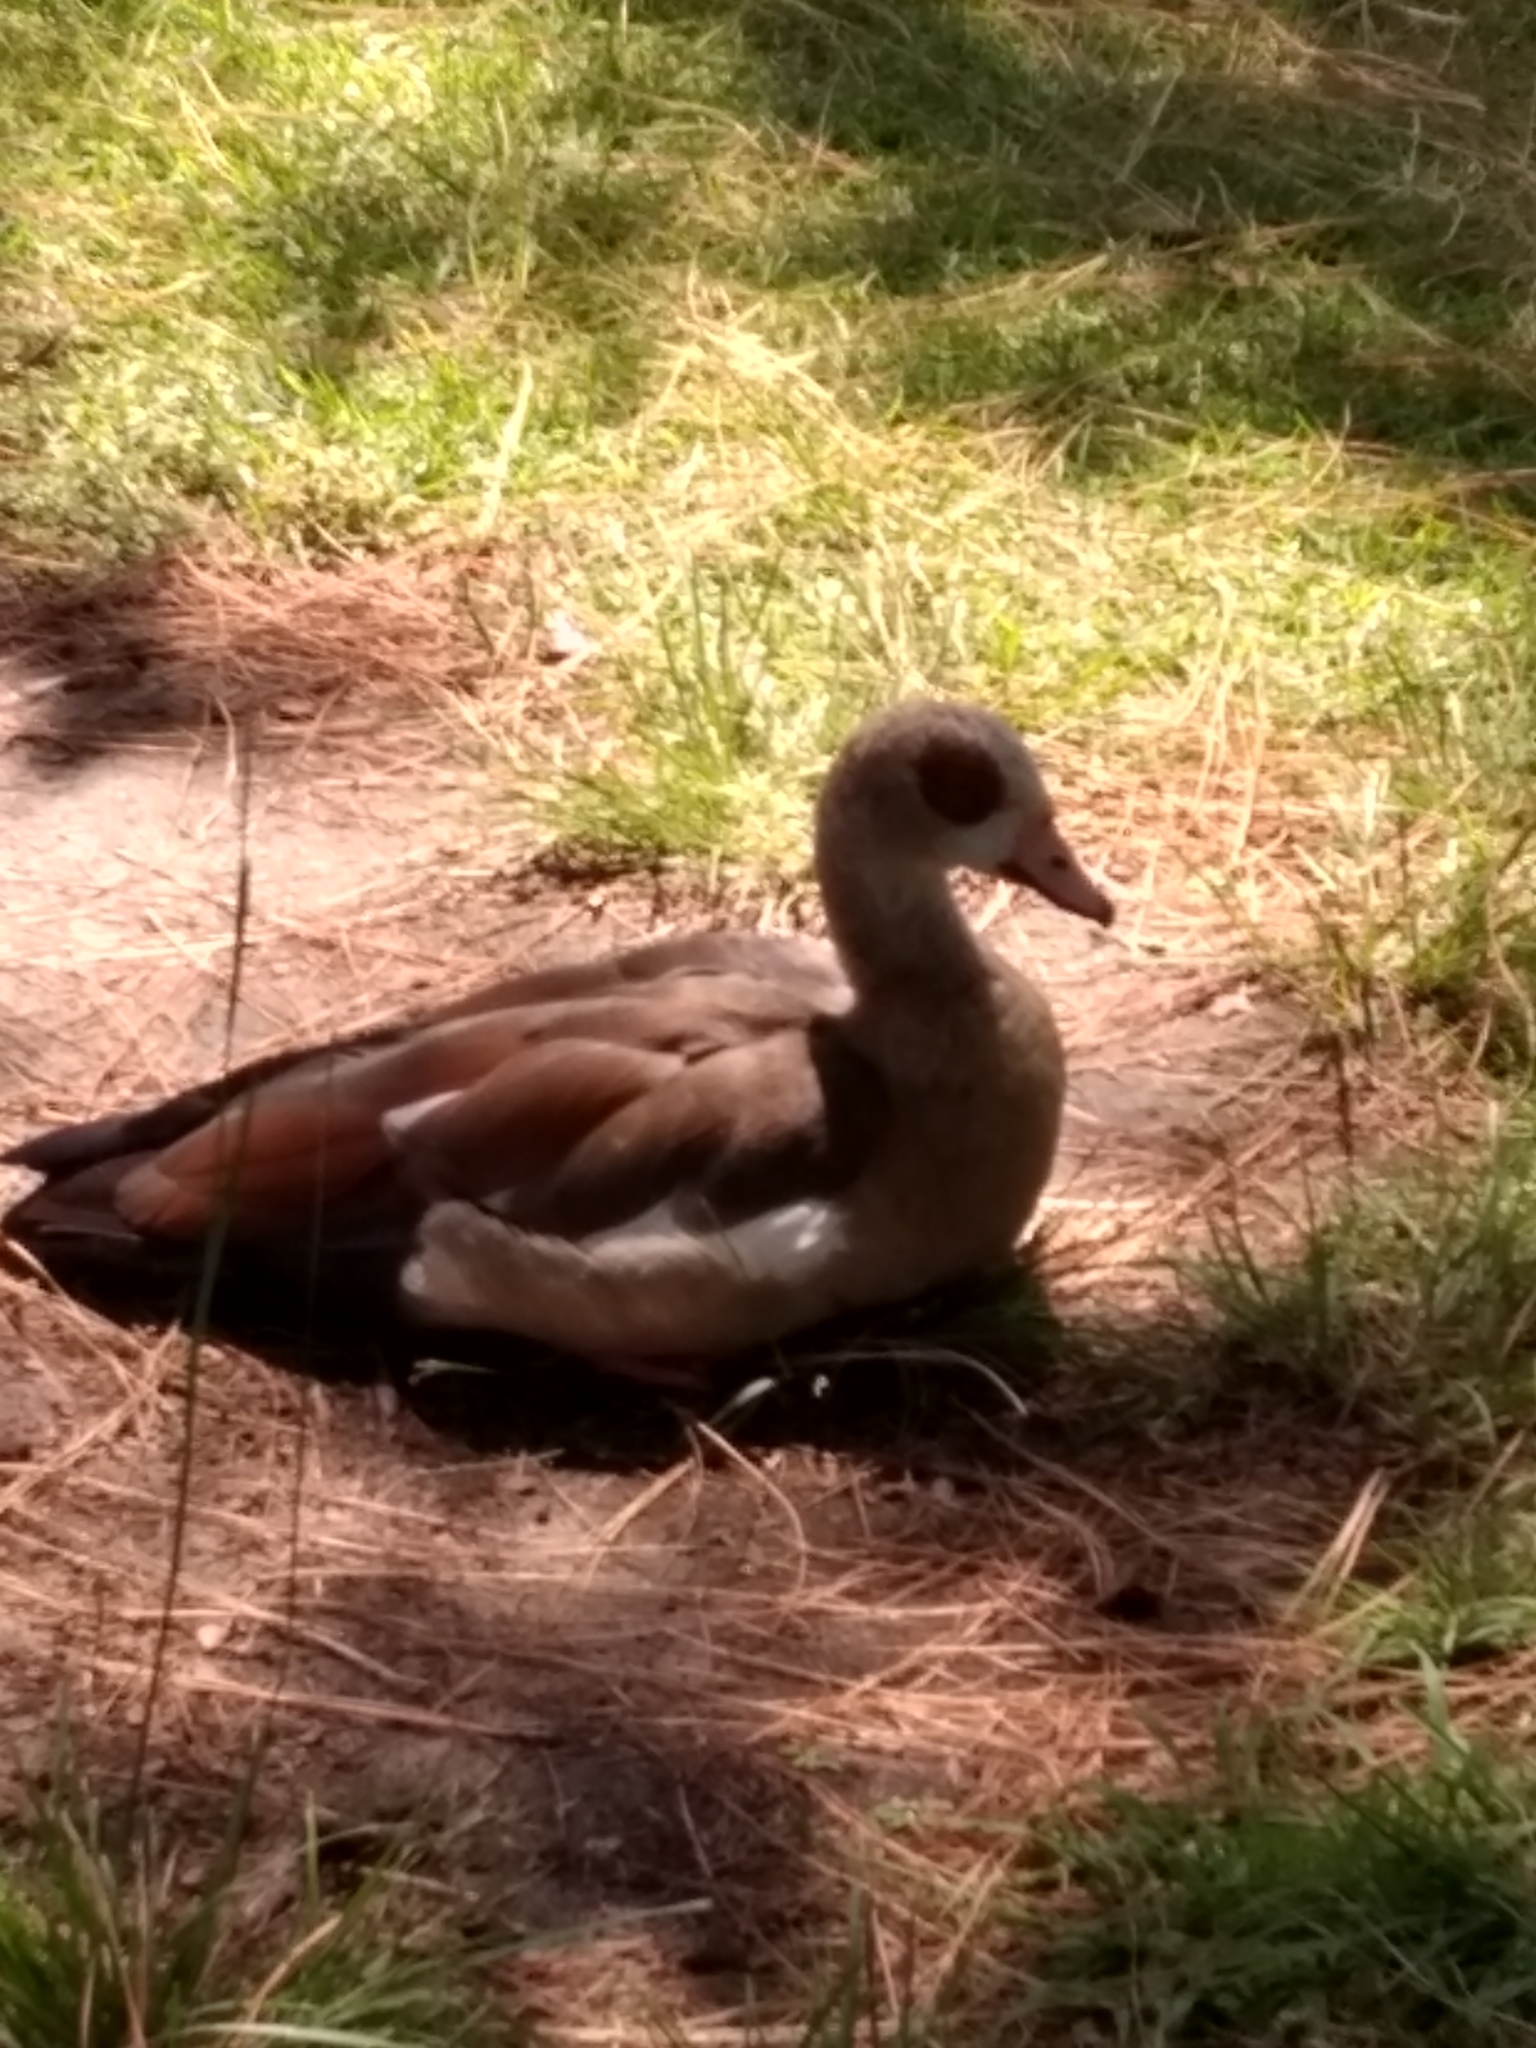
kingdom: Animalia
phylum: Chordata
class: Aves
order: Anseriformes
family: Anatidae
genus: Alopochen
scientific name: Alopochen aegyptiaca
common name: Egyptian goose
